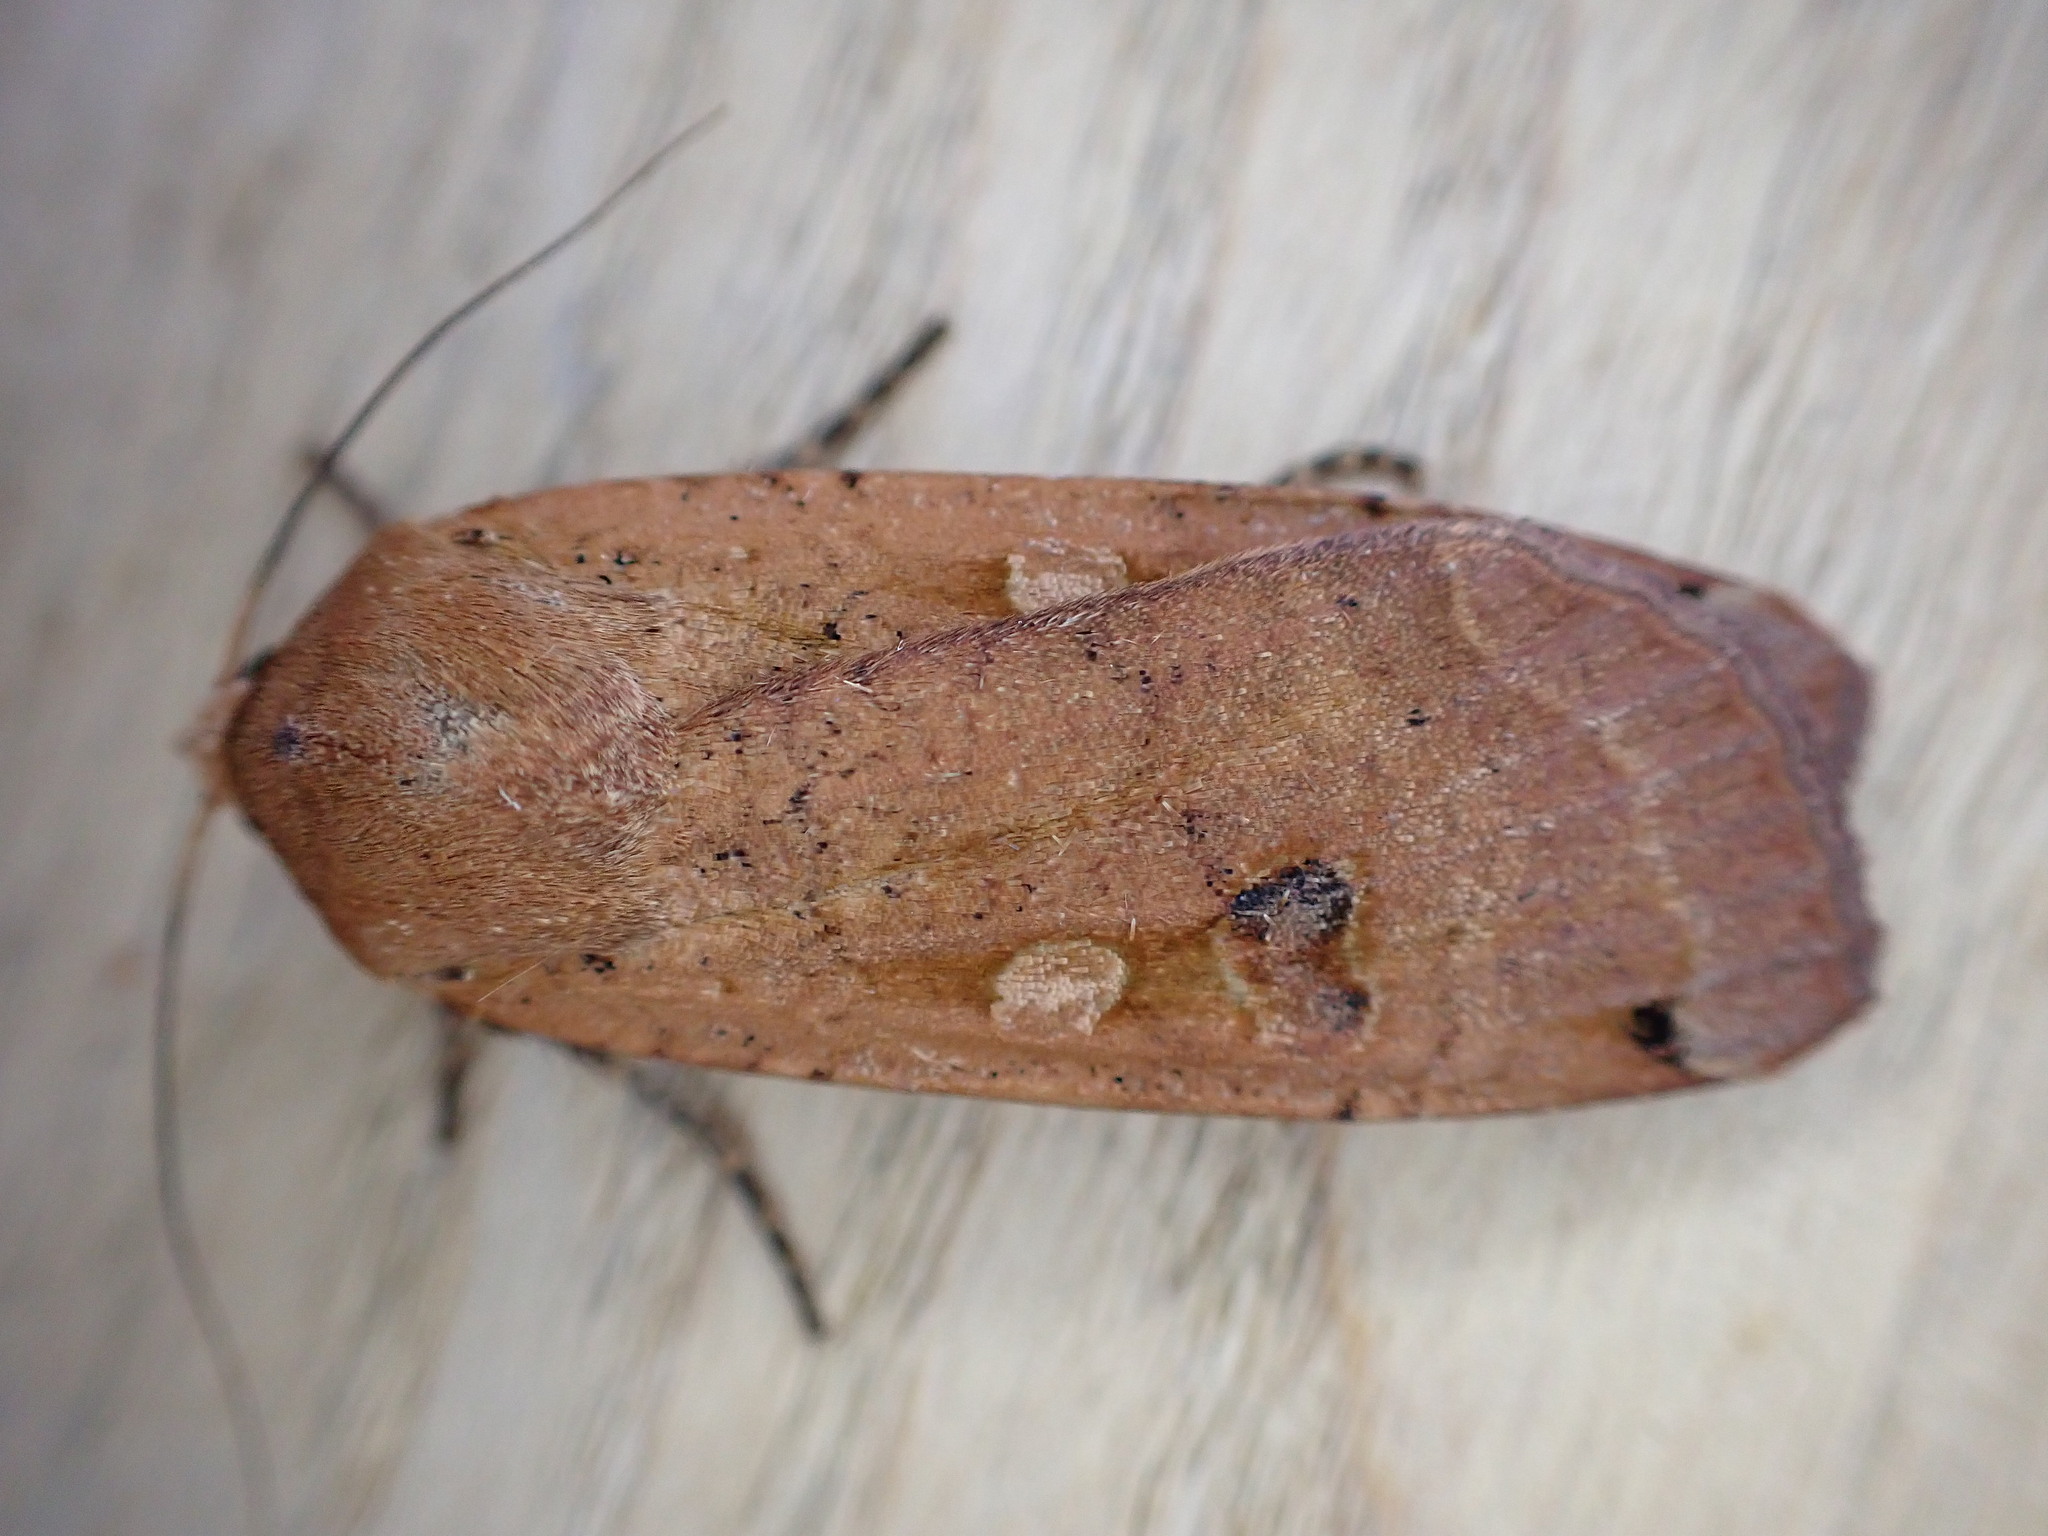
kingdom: Animalia
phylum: Arthropoda
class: Insecta
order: Lepidoptera
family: Noctuidae
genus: Noctua
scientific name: Noctua pronuba
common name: Large yellow underwing
